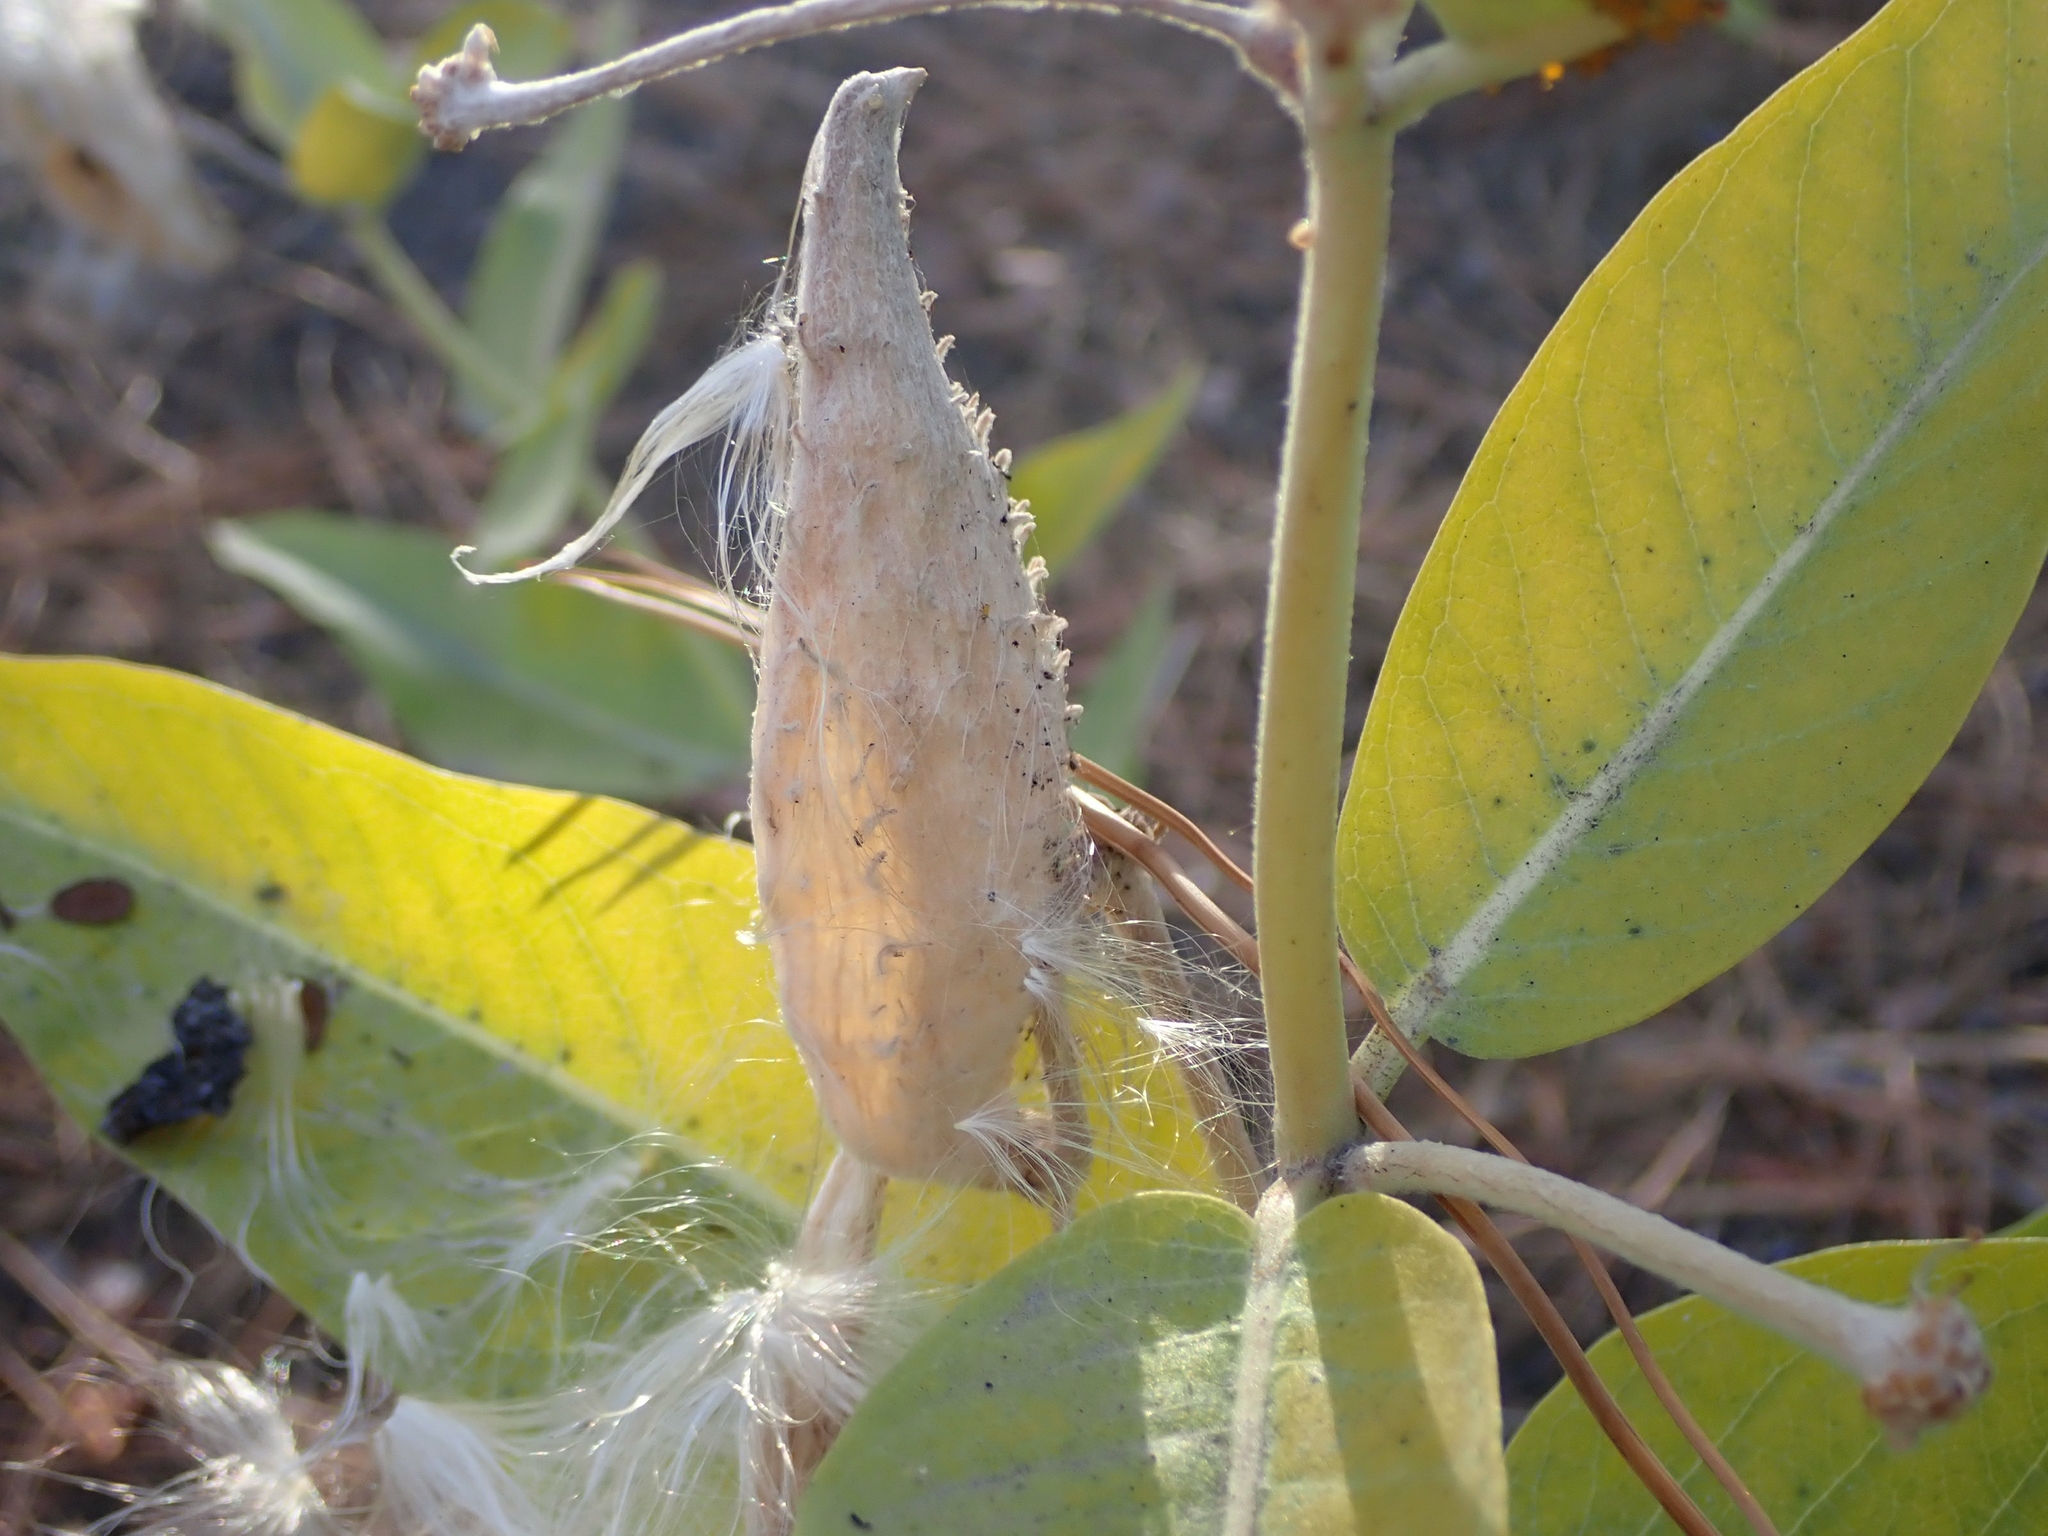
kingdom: Plantae
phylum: Tracheophyta
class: Magnoliopsida
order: Gentianales
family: Apocynaceae
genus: Asclepias
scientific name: Asclepias speciosa
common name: Showy milkweed
